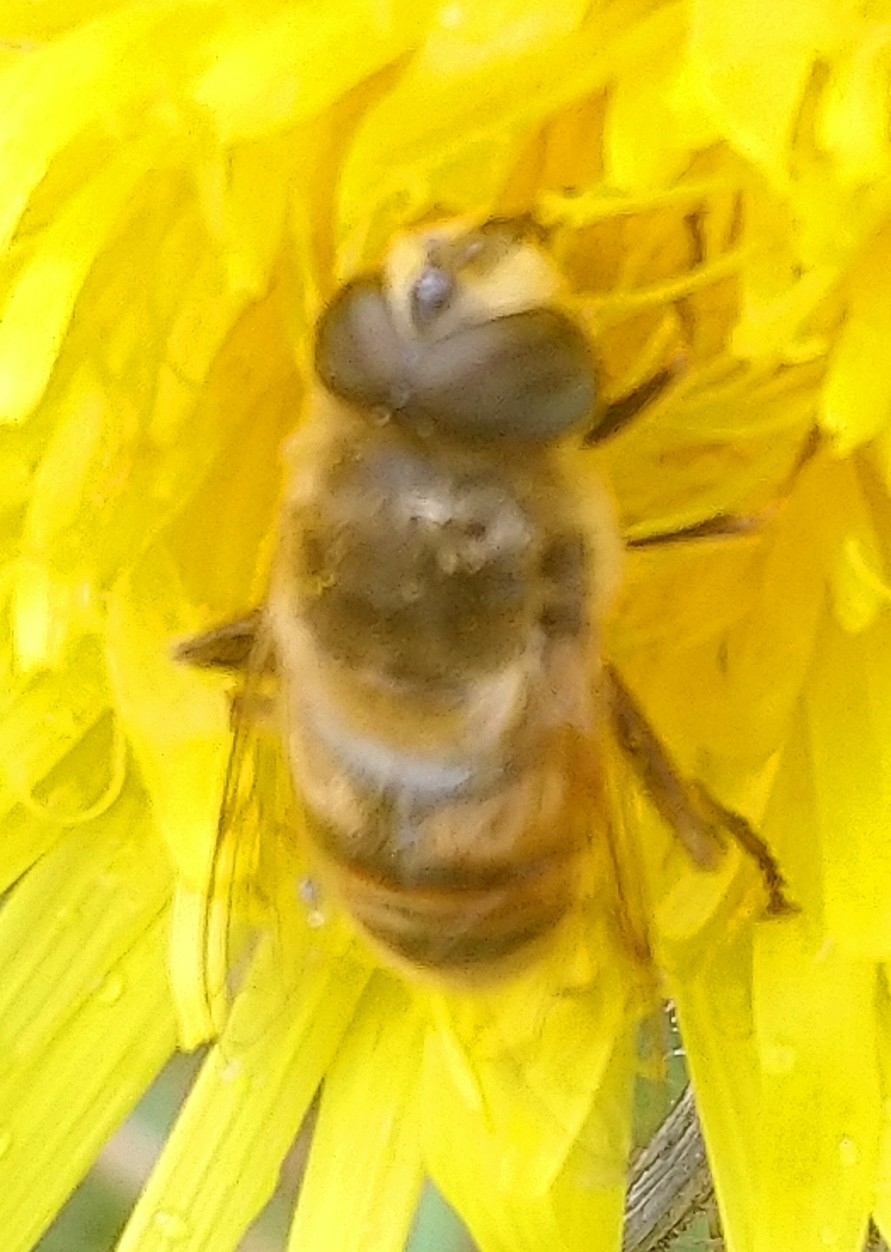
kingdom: Animalia
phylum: Arthropoda
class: Insecta
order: Diptera
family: Syrphidae
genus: Eristalis
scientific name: Eristalis tenax
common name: Drone fly
